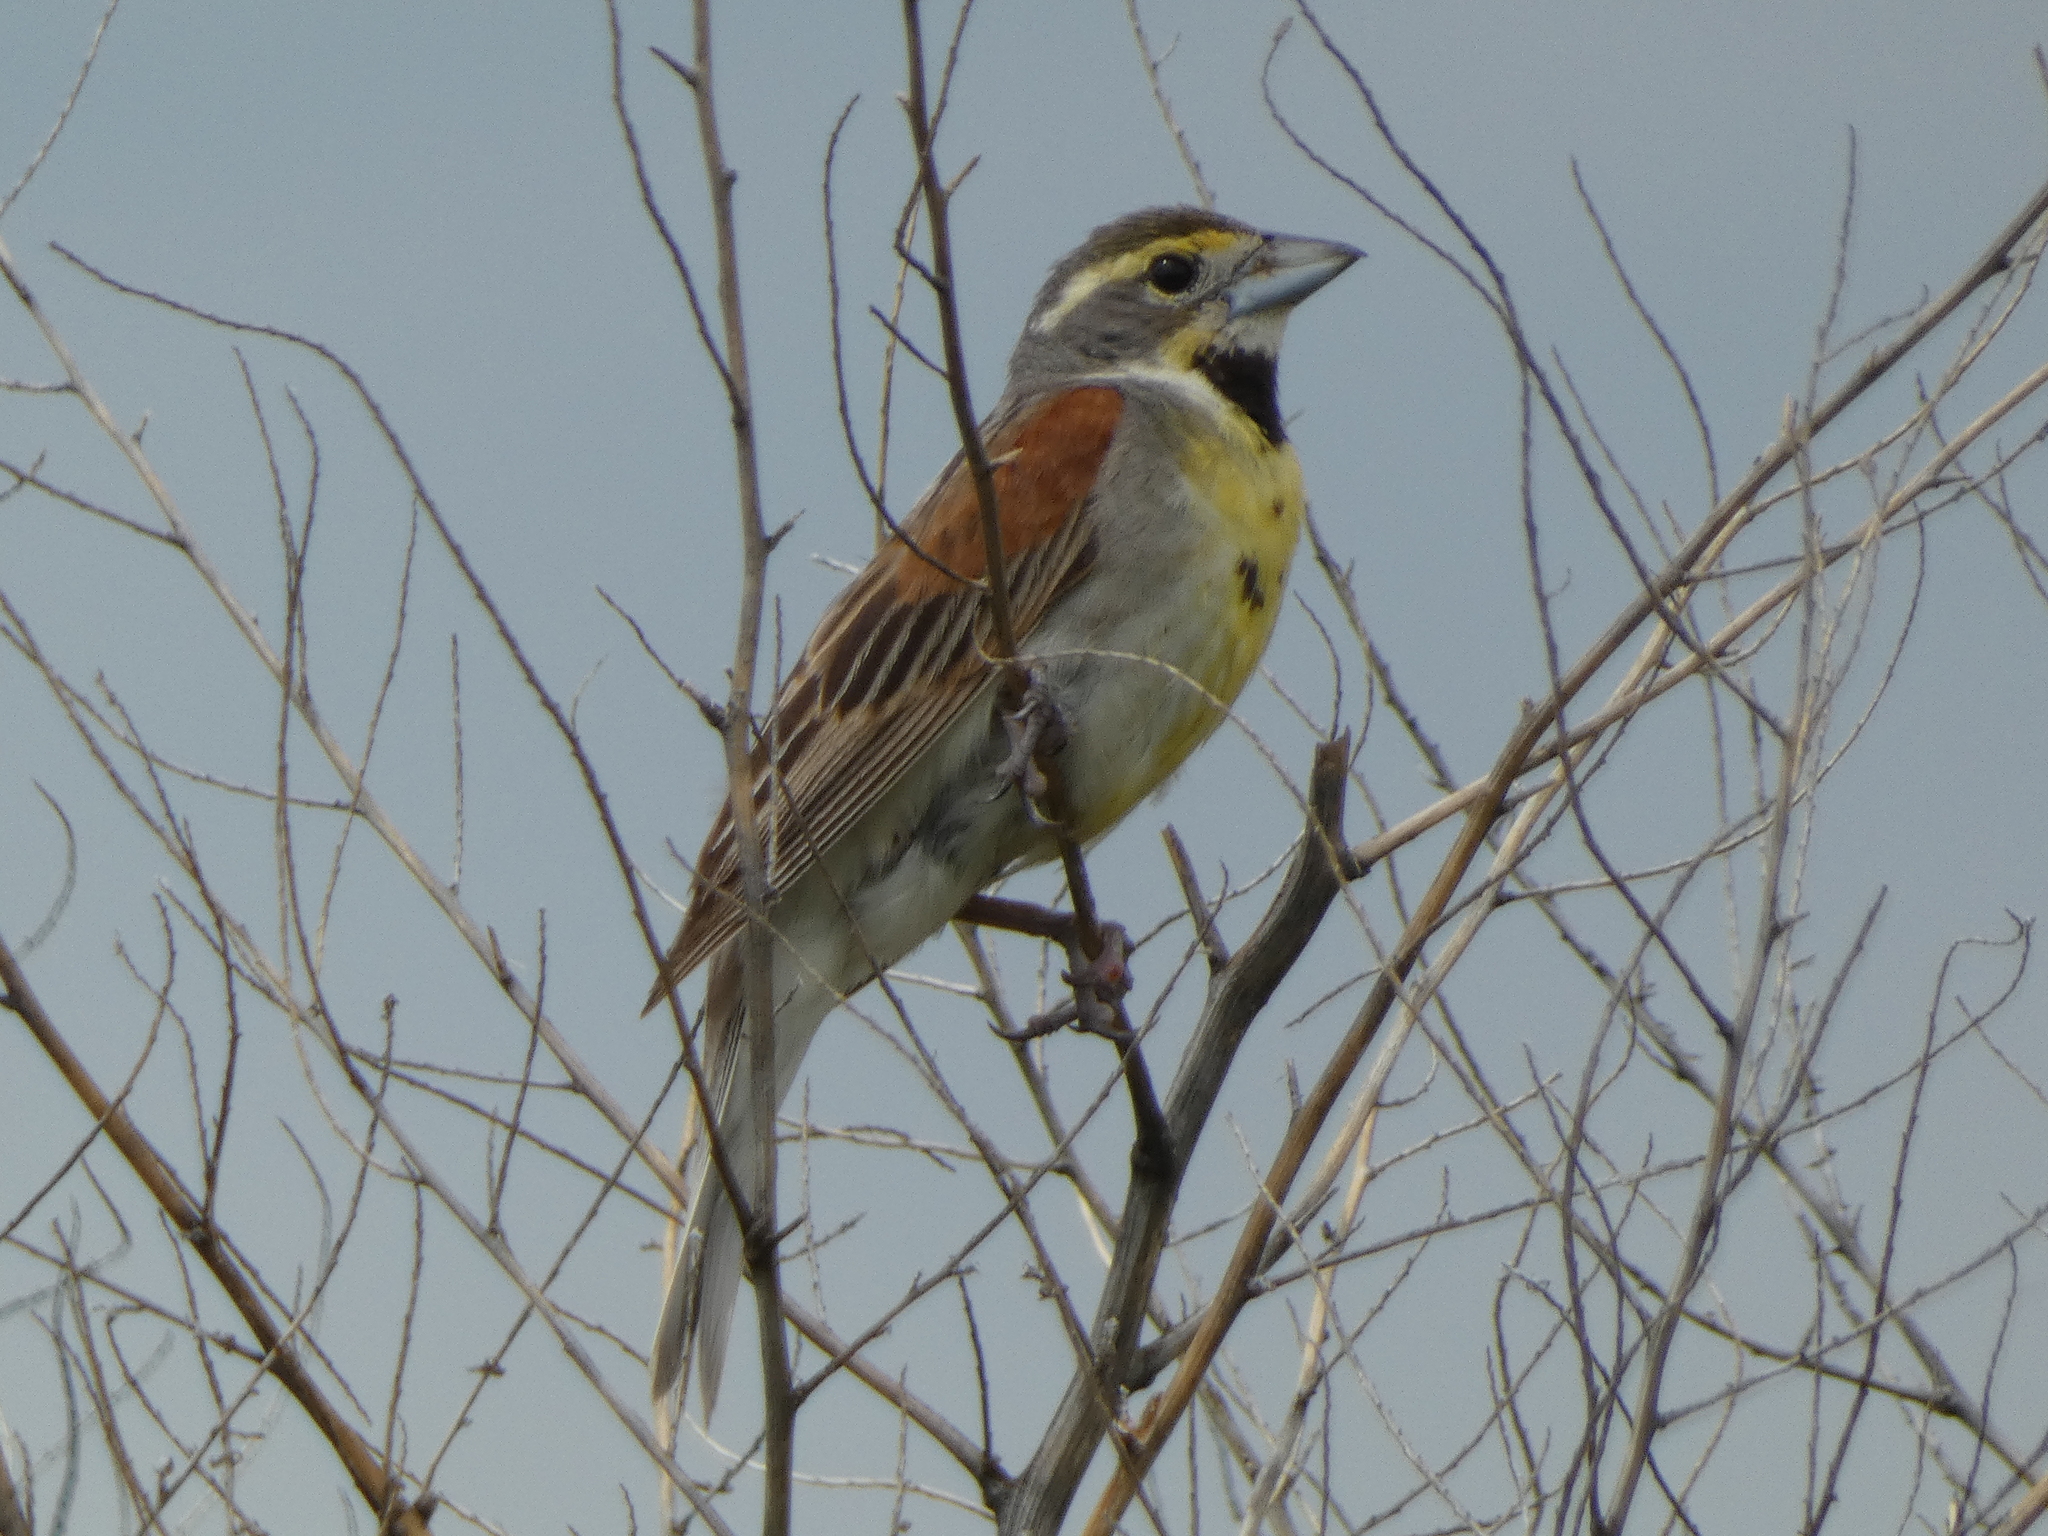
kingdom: Animalia
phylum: Chordata
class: Aves
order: Passeriformes
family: Cardinalidae
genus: Spiza
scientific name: Spiza americana
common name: Dickcissel
